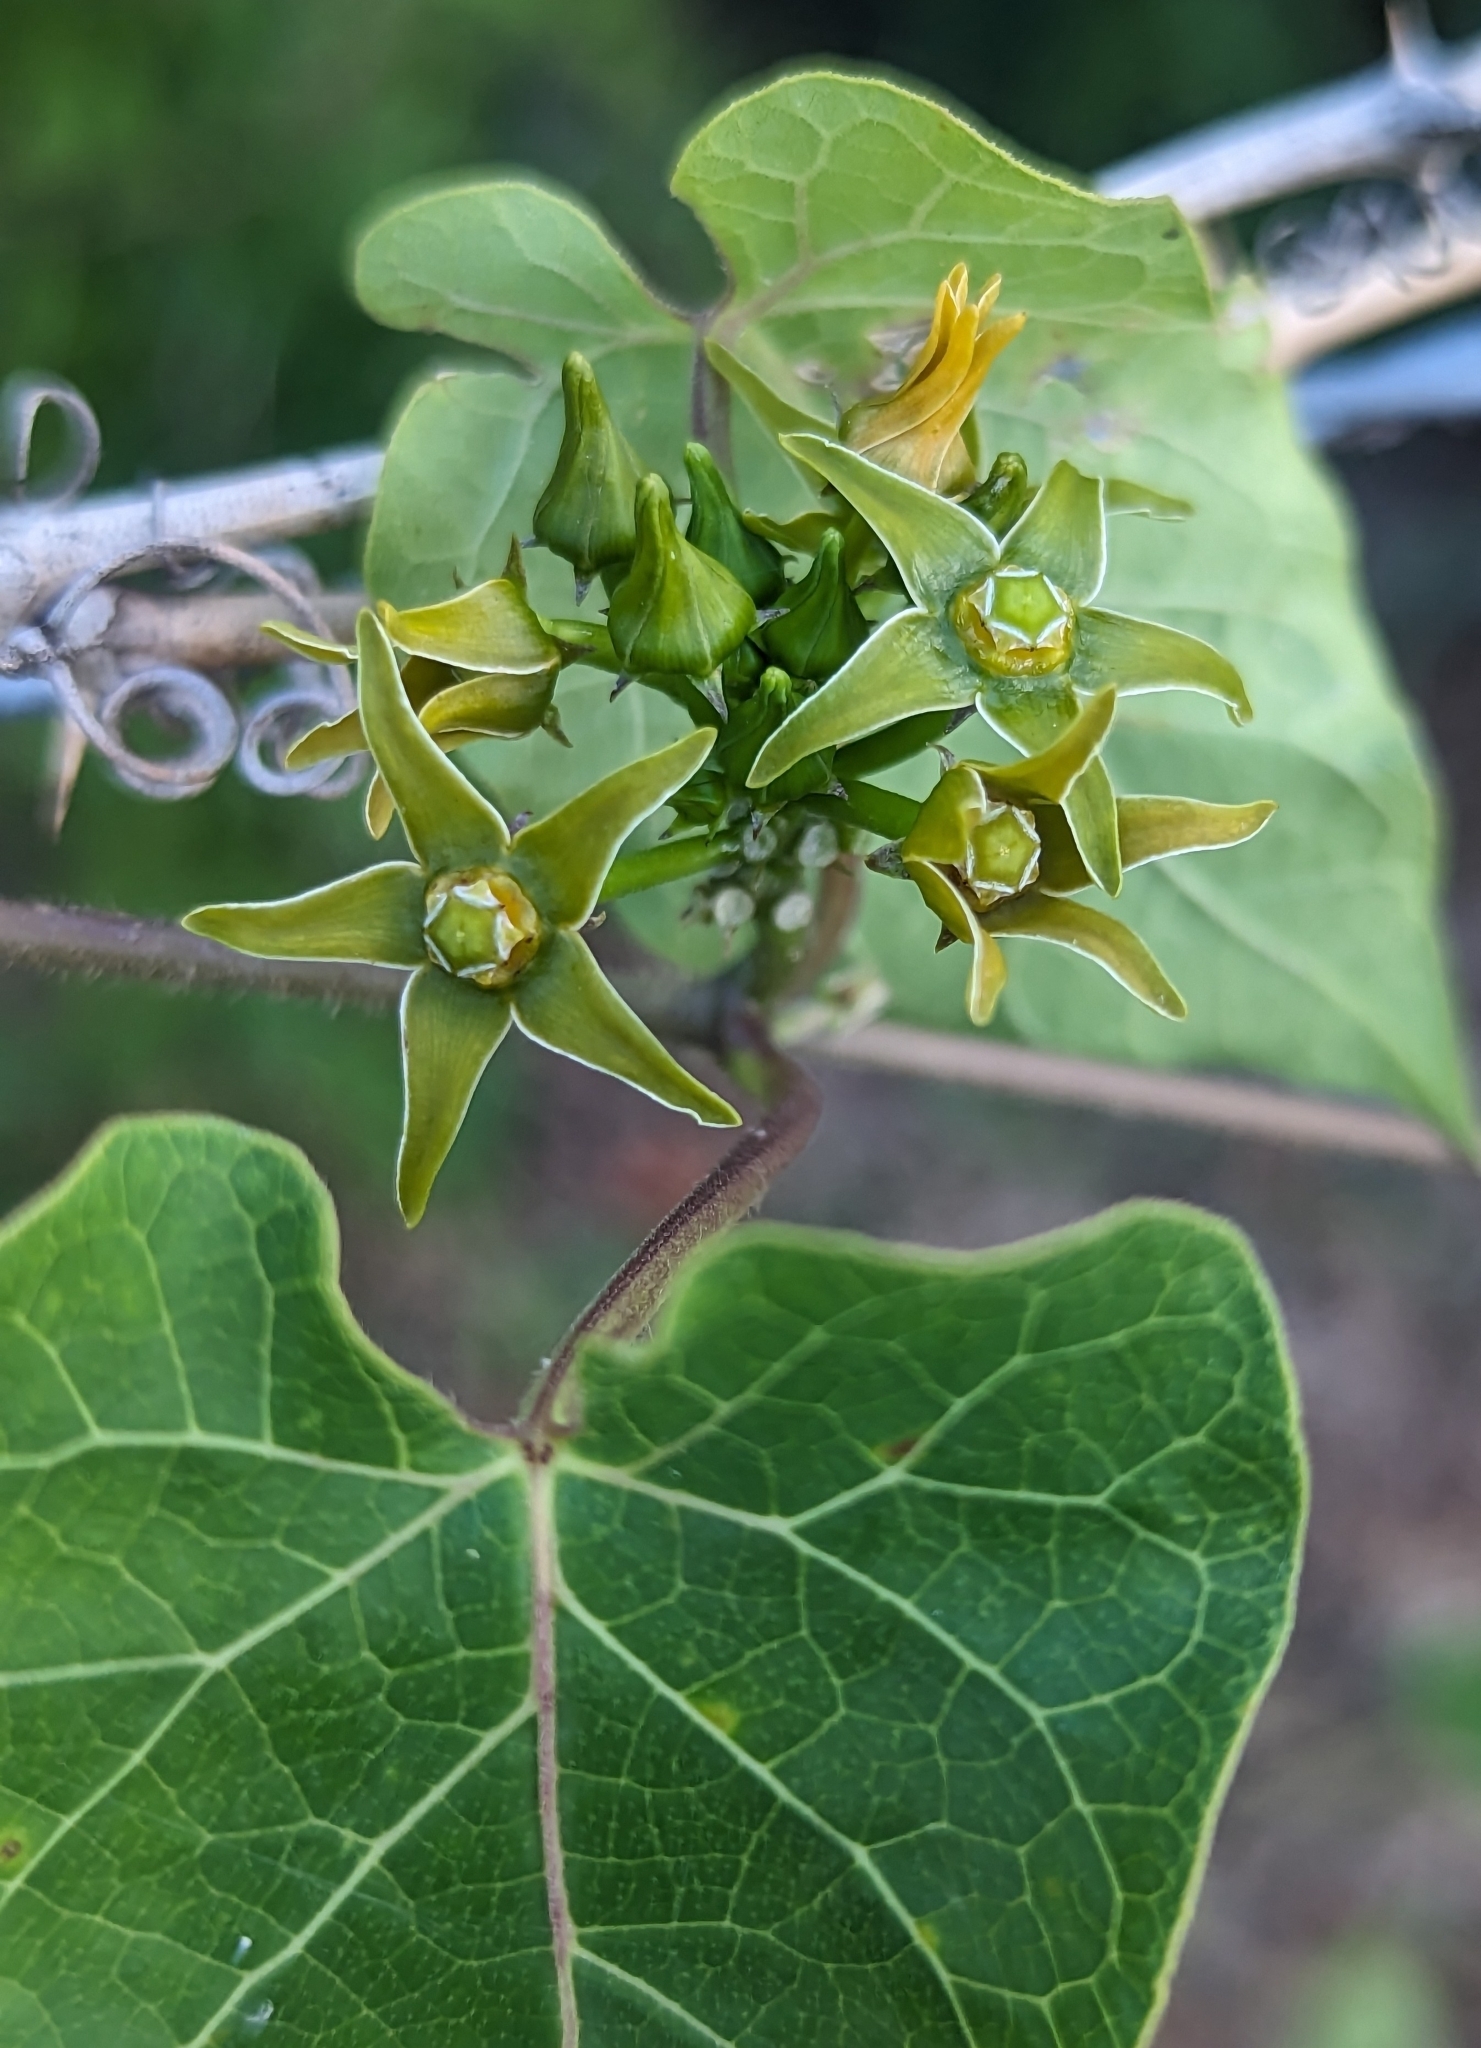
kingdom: Plantae
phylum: Tracheophyta
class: Magnoliopsida
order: Gentianales
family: Apocynaceae
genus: Gonolobus
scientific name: Gonolobus suberosus
